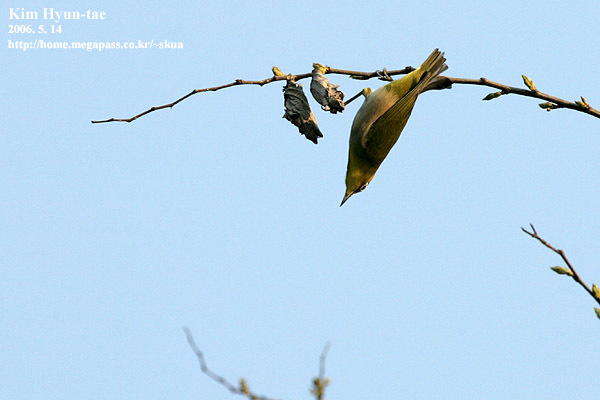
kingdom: Animalia
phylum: Chordata
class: Aves
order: Passeriformes
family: Zosteropidae
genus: Zosterops
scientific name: Zosterops japonicus
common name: Japanese white-eye
